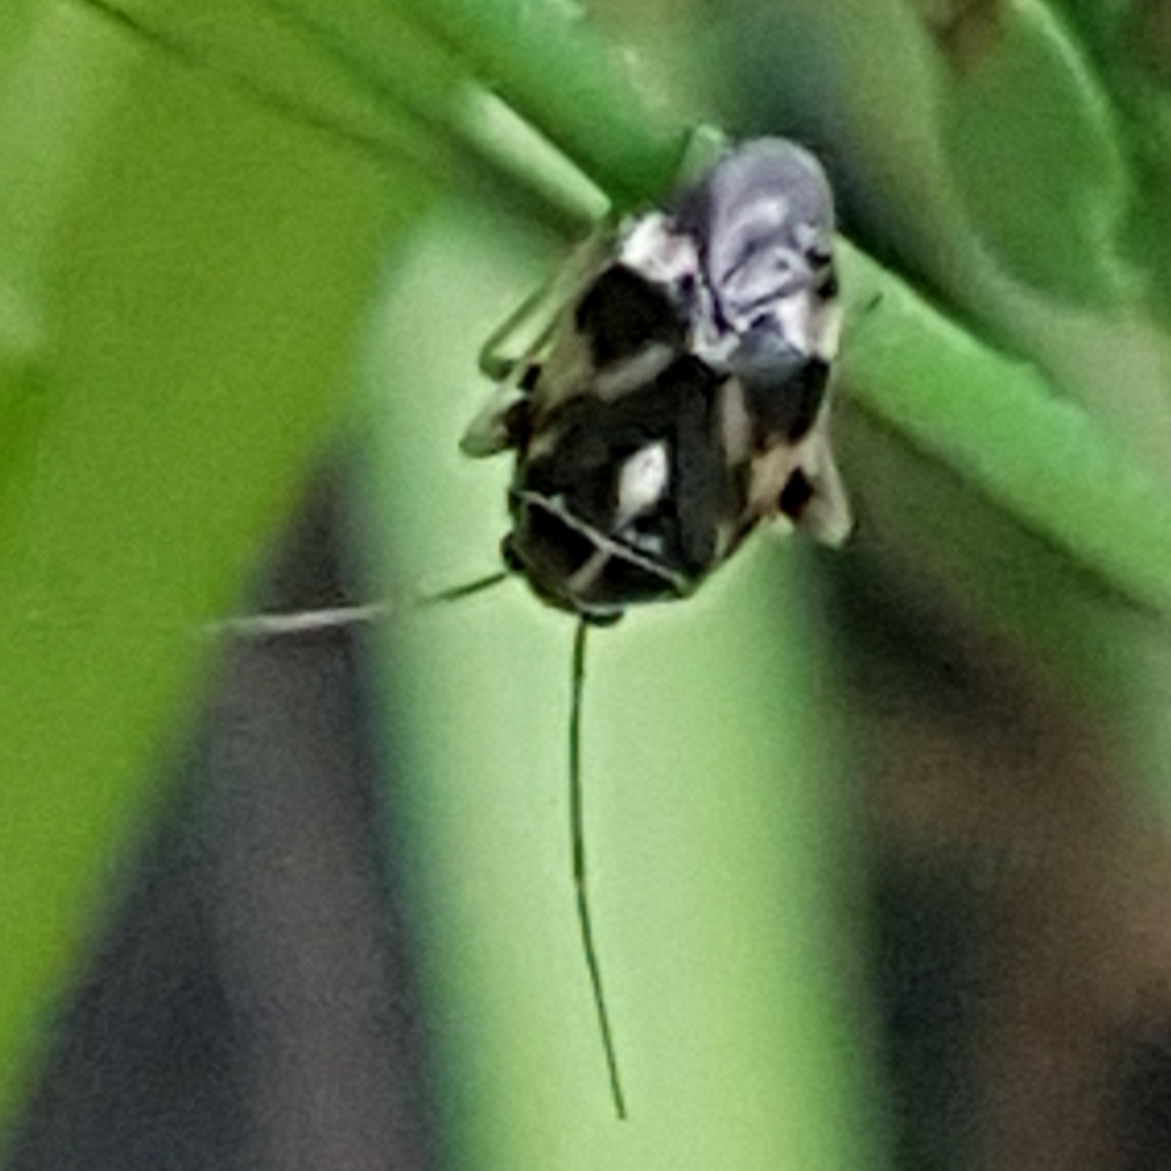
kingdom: Animalia
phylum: Arthropoda
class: Insecta
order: Hemiptera
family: Miridae
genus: Cyphodema
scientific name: Cyphodema instabilis
